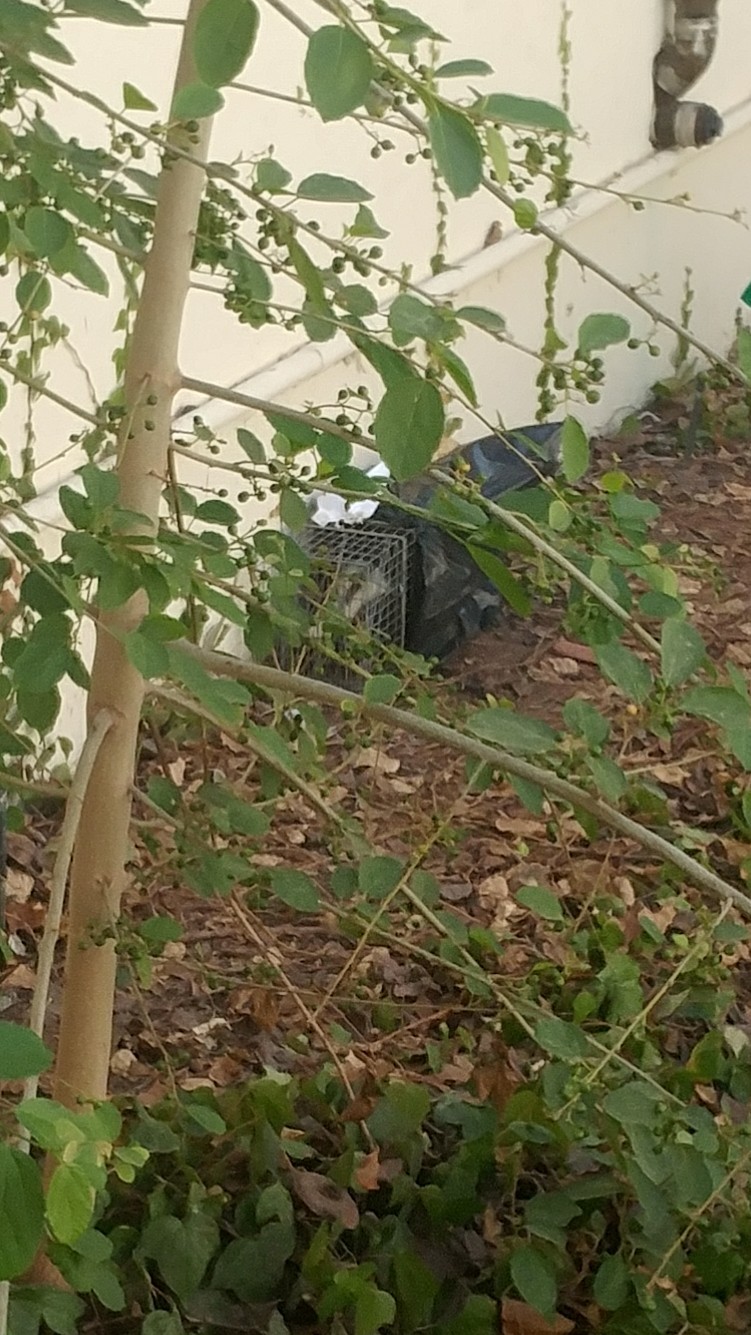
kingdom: Animalia
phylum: Chordata
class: Mammalia
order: Carnivora
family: Mephitidae
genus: Mephitis
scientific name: Mephitis mephitis
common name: Striped skunk
